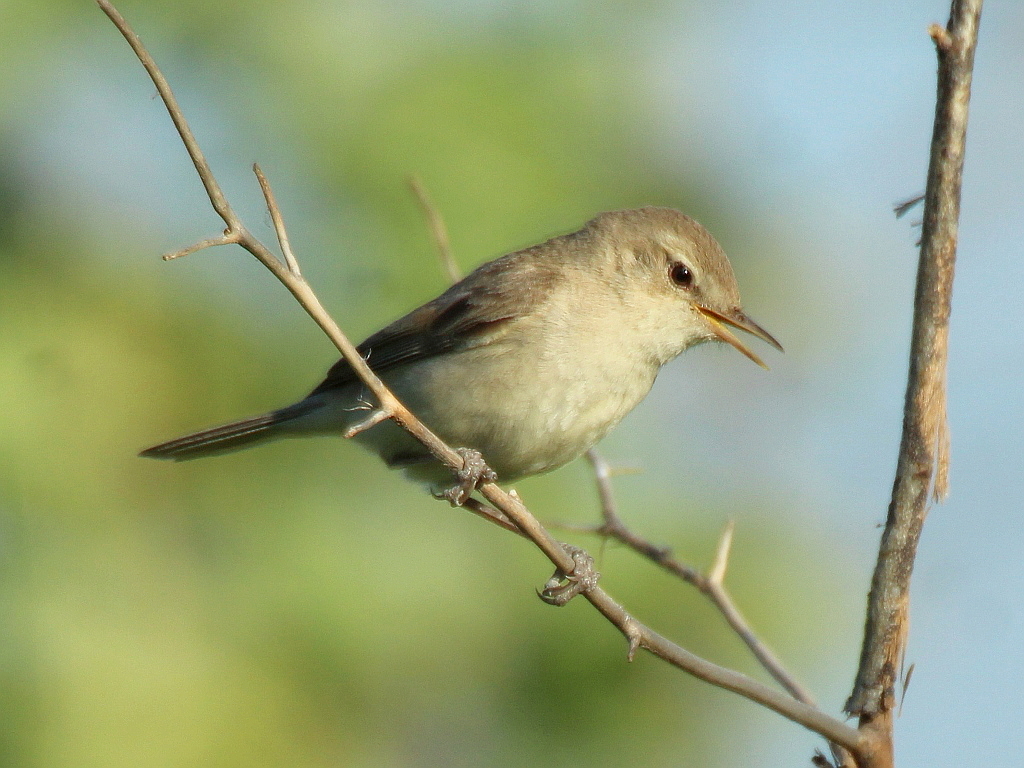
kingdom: Animalia
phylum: Chordata
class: Aves
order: Passeriformes
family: Acrocephalidae
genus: Iduna
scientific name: Iduna caligata
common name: Booted warbler
